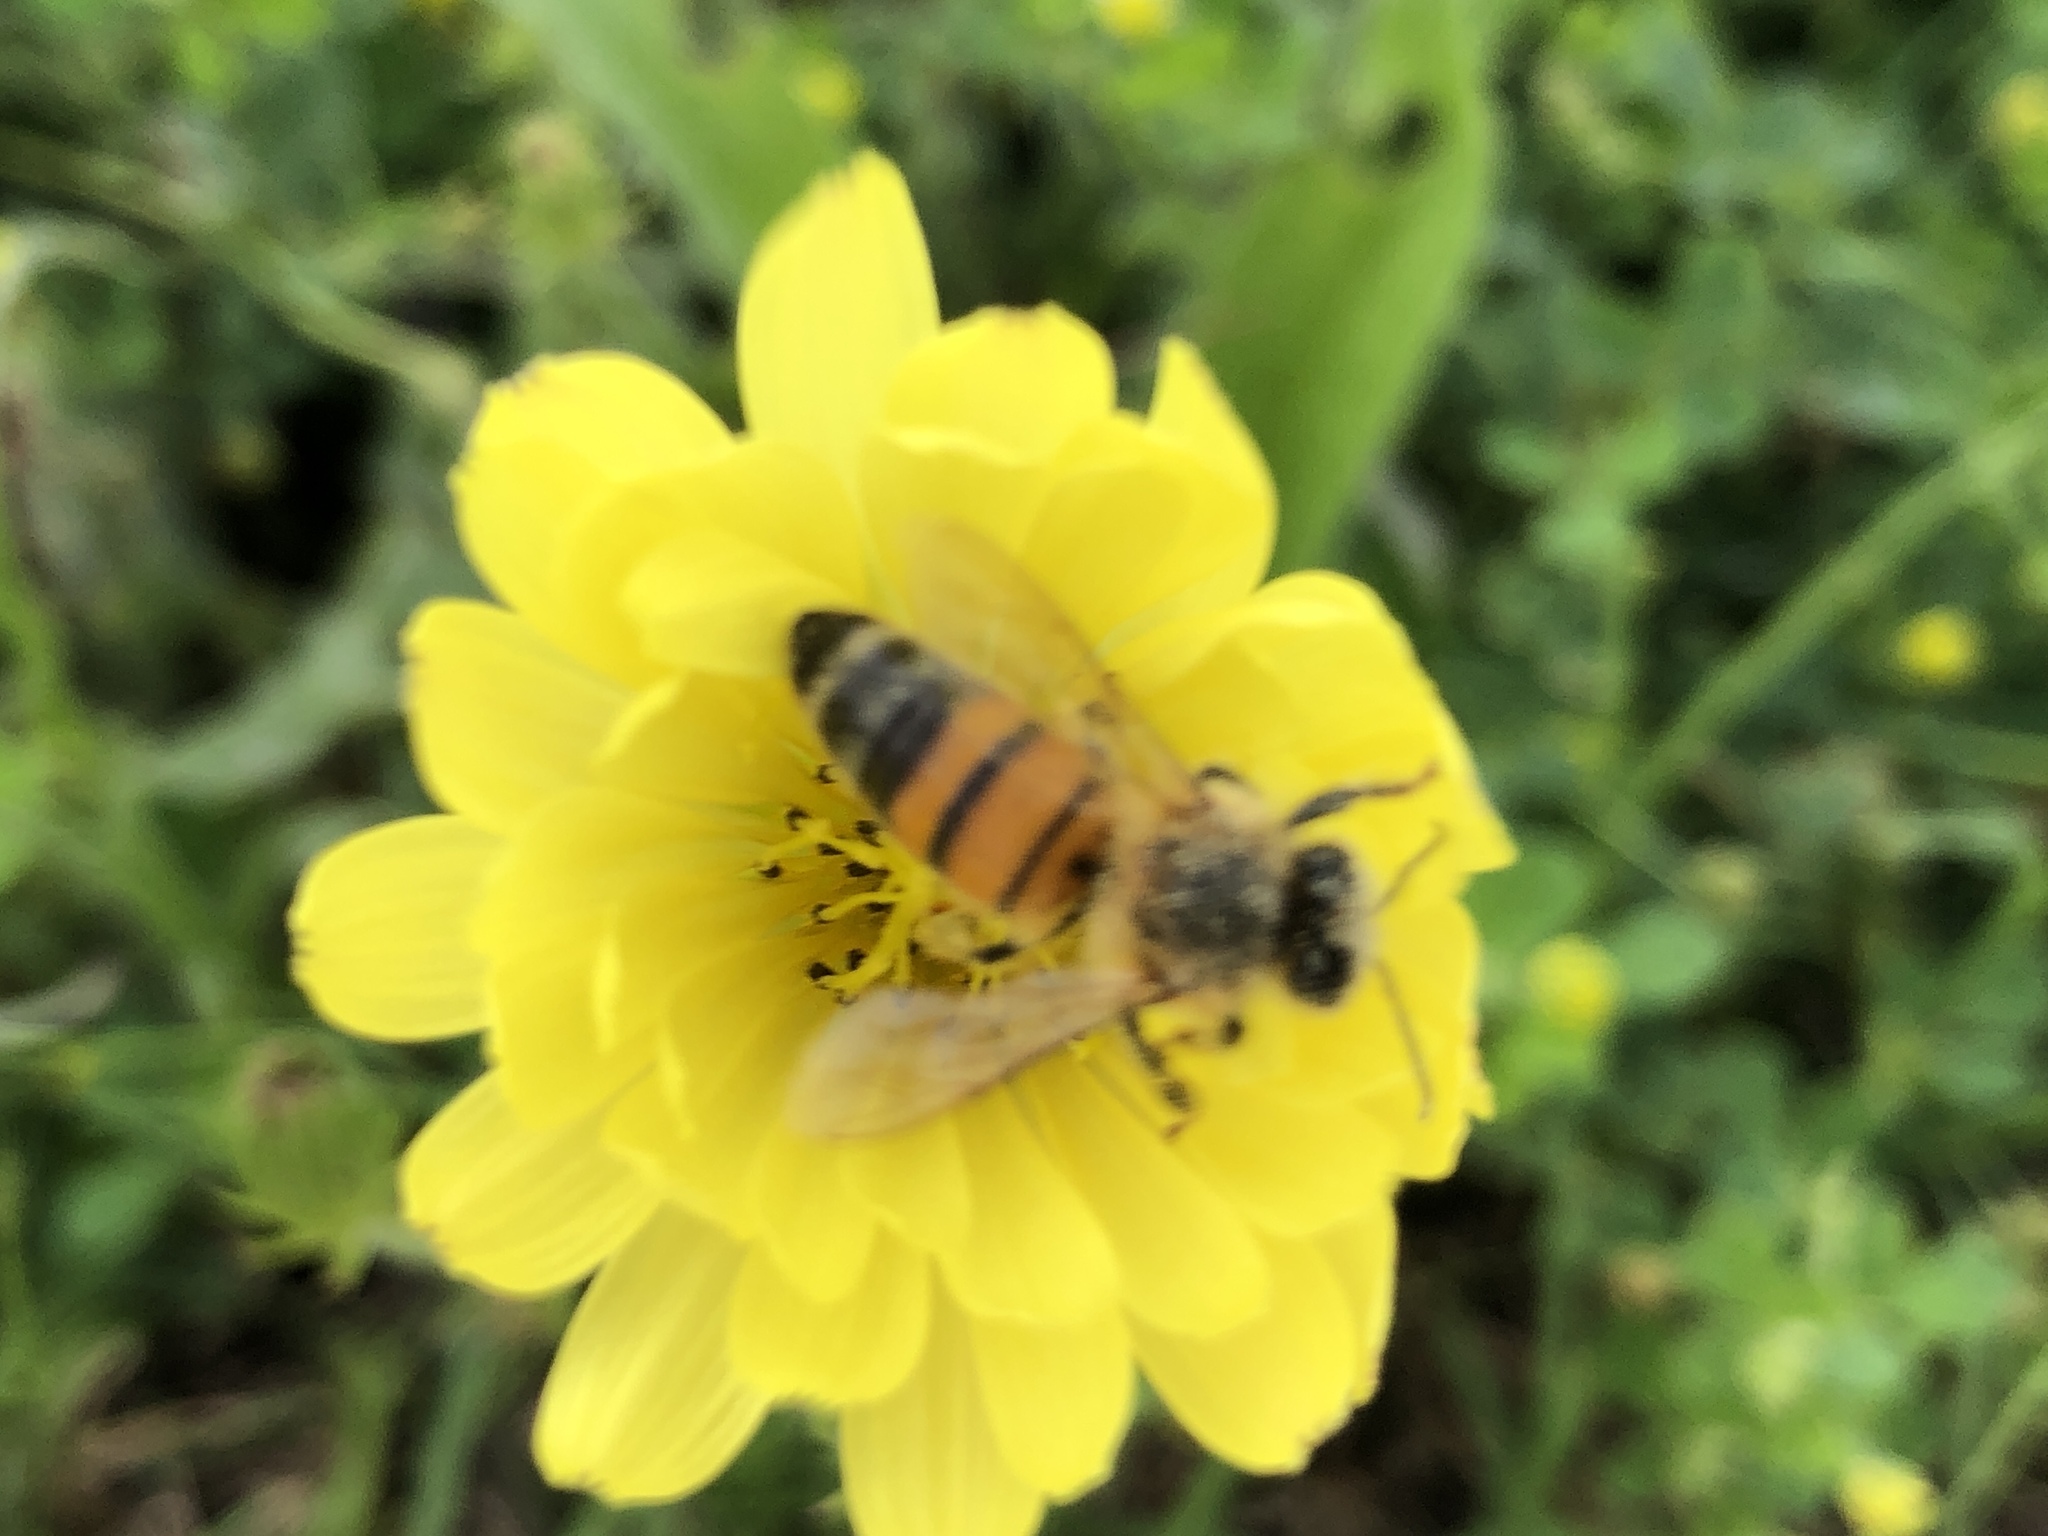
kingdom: Animalia
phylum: Arthropoda
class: Insecta
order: Hymenoptera
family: Apidae
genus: Apis
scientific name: Apis mellifera
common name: Honey bee
